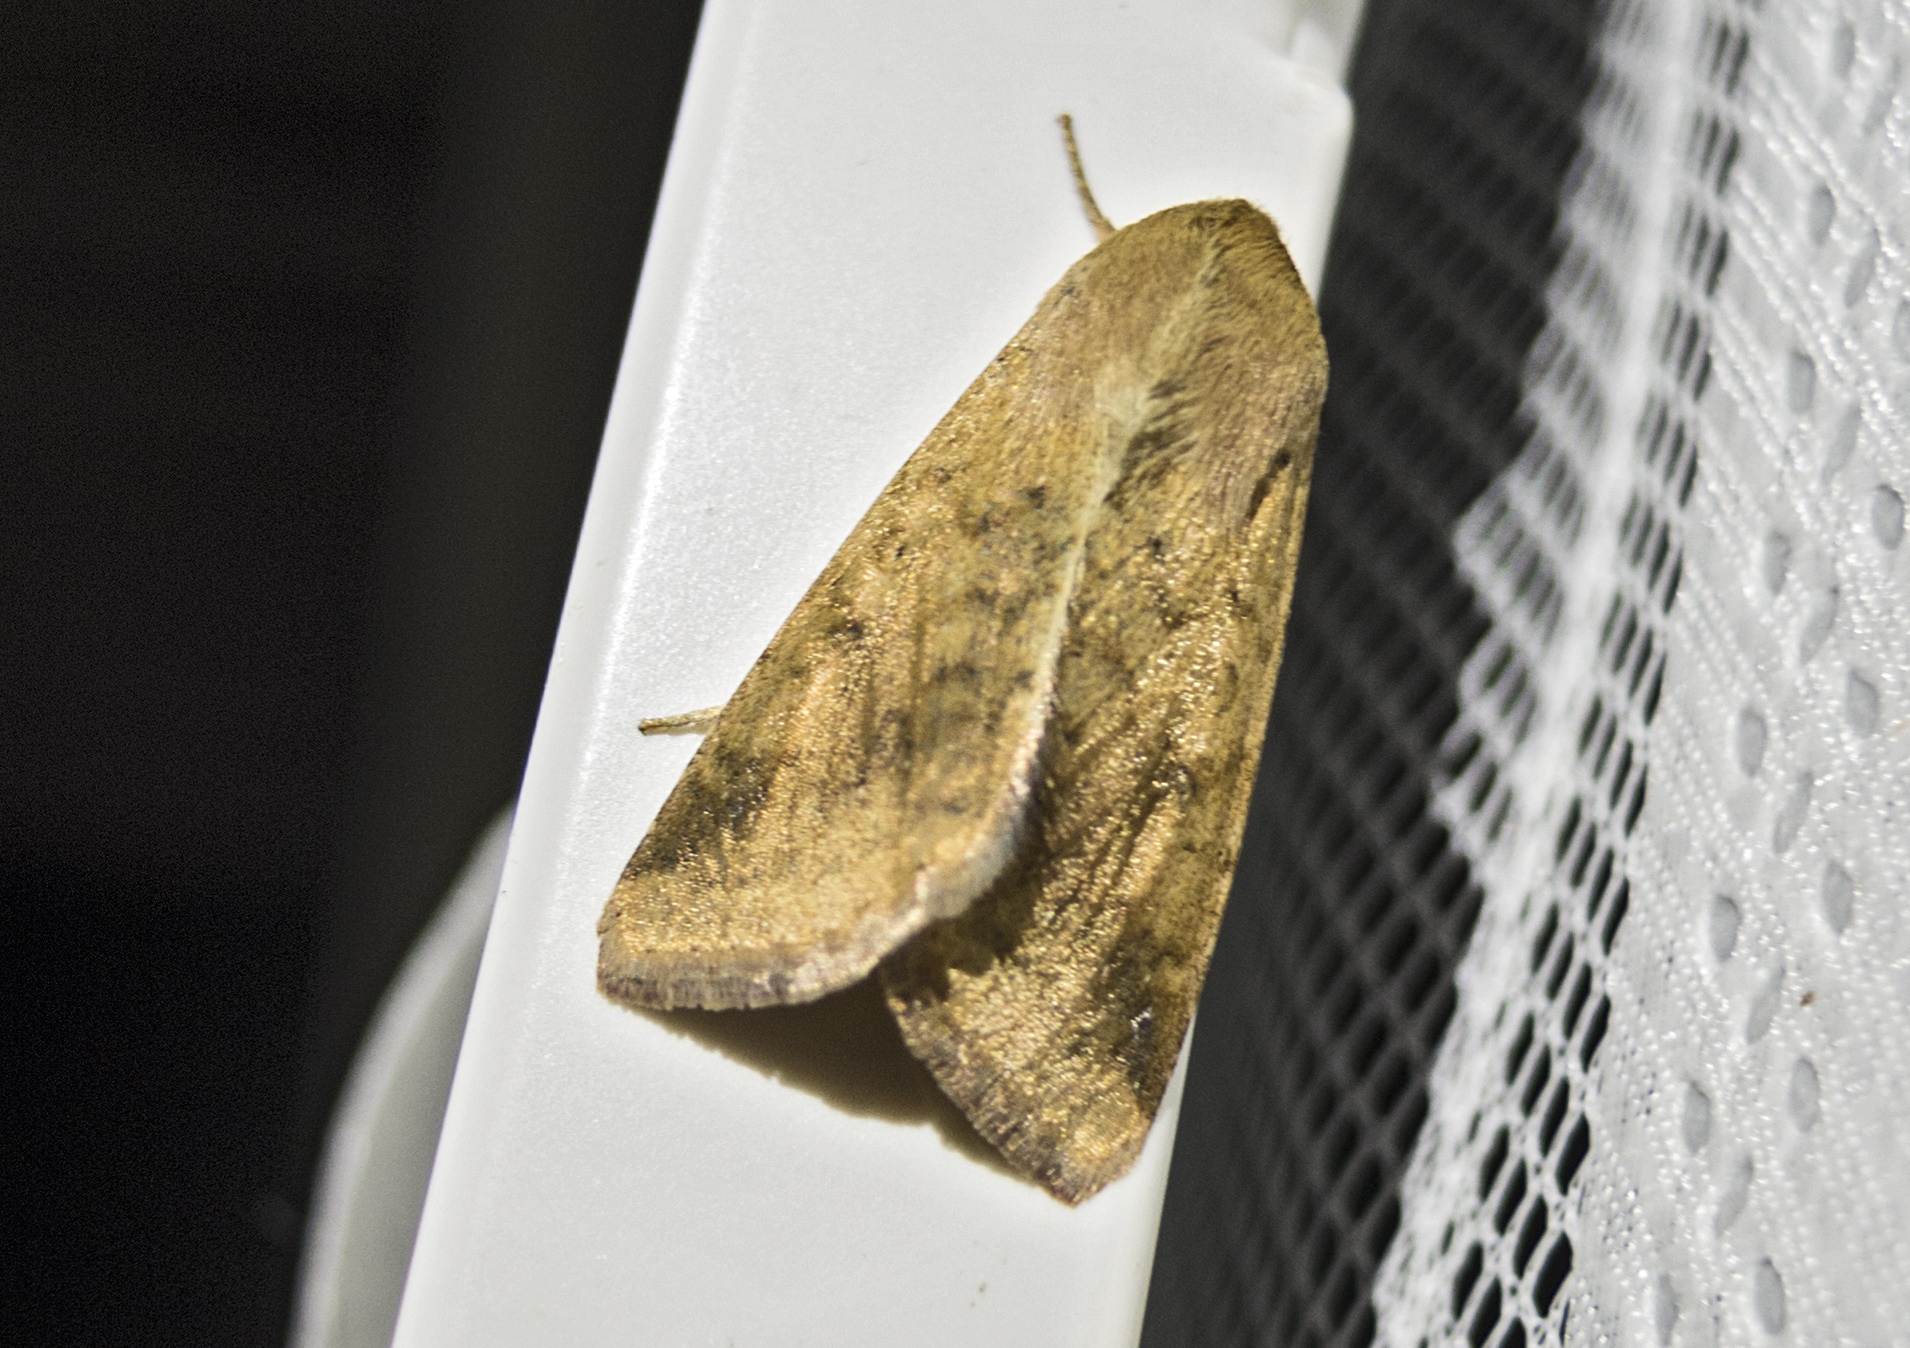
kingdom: Animalia
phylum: Arthropoda
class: Insecta
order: Lepidoptera
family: Noctuidae
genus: Helicoverpa
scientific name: Helicoverpa armigera
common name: Cotton bollworm
